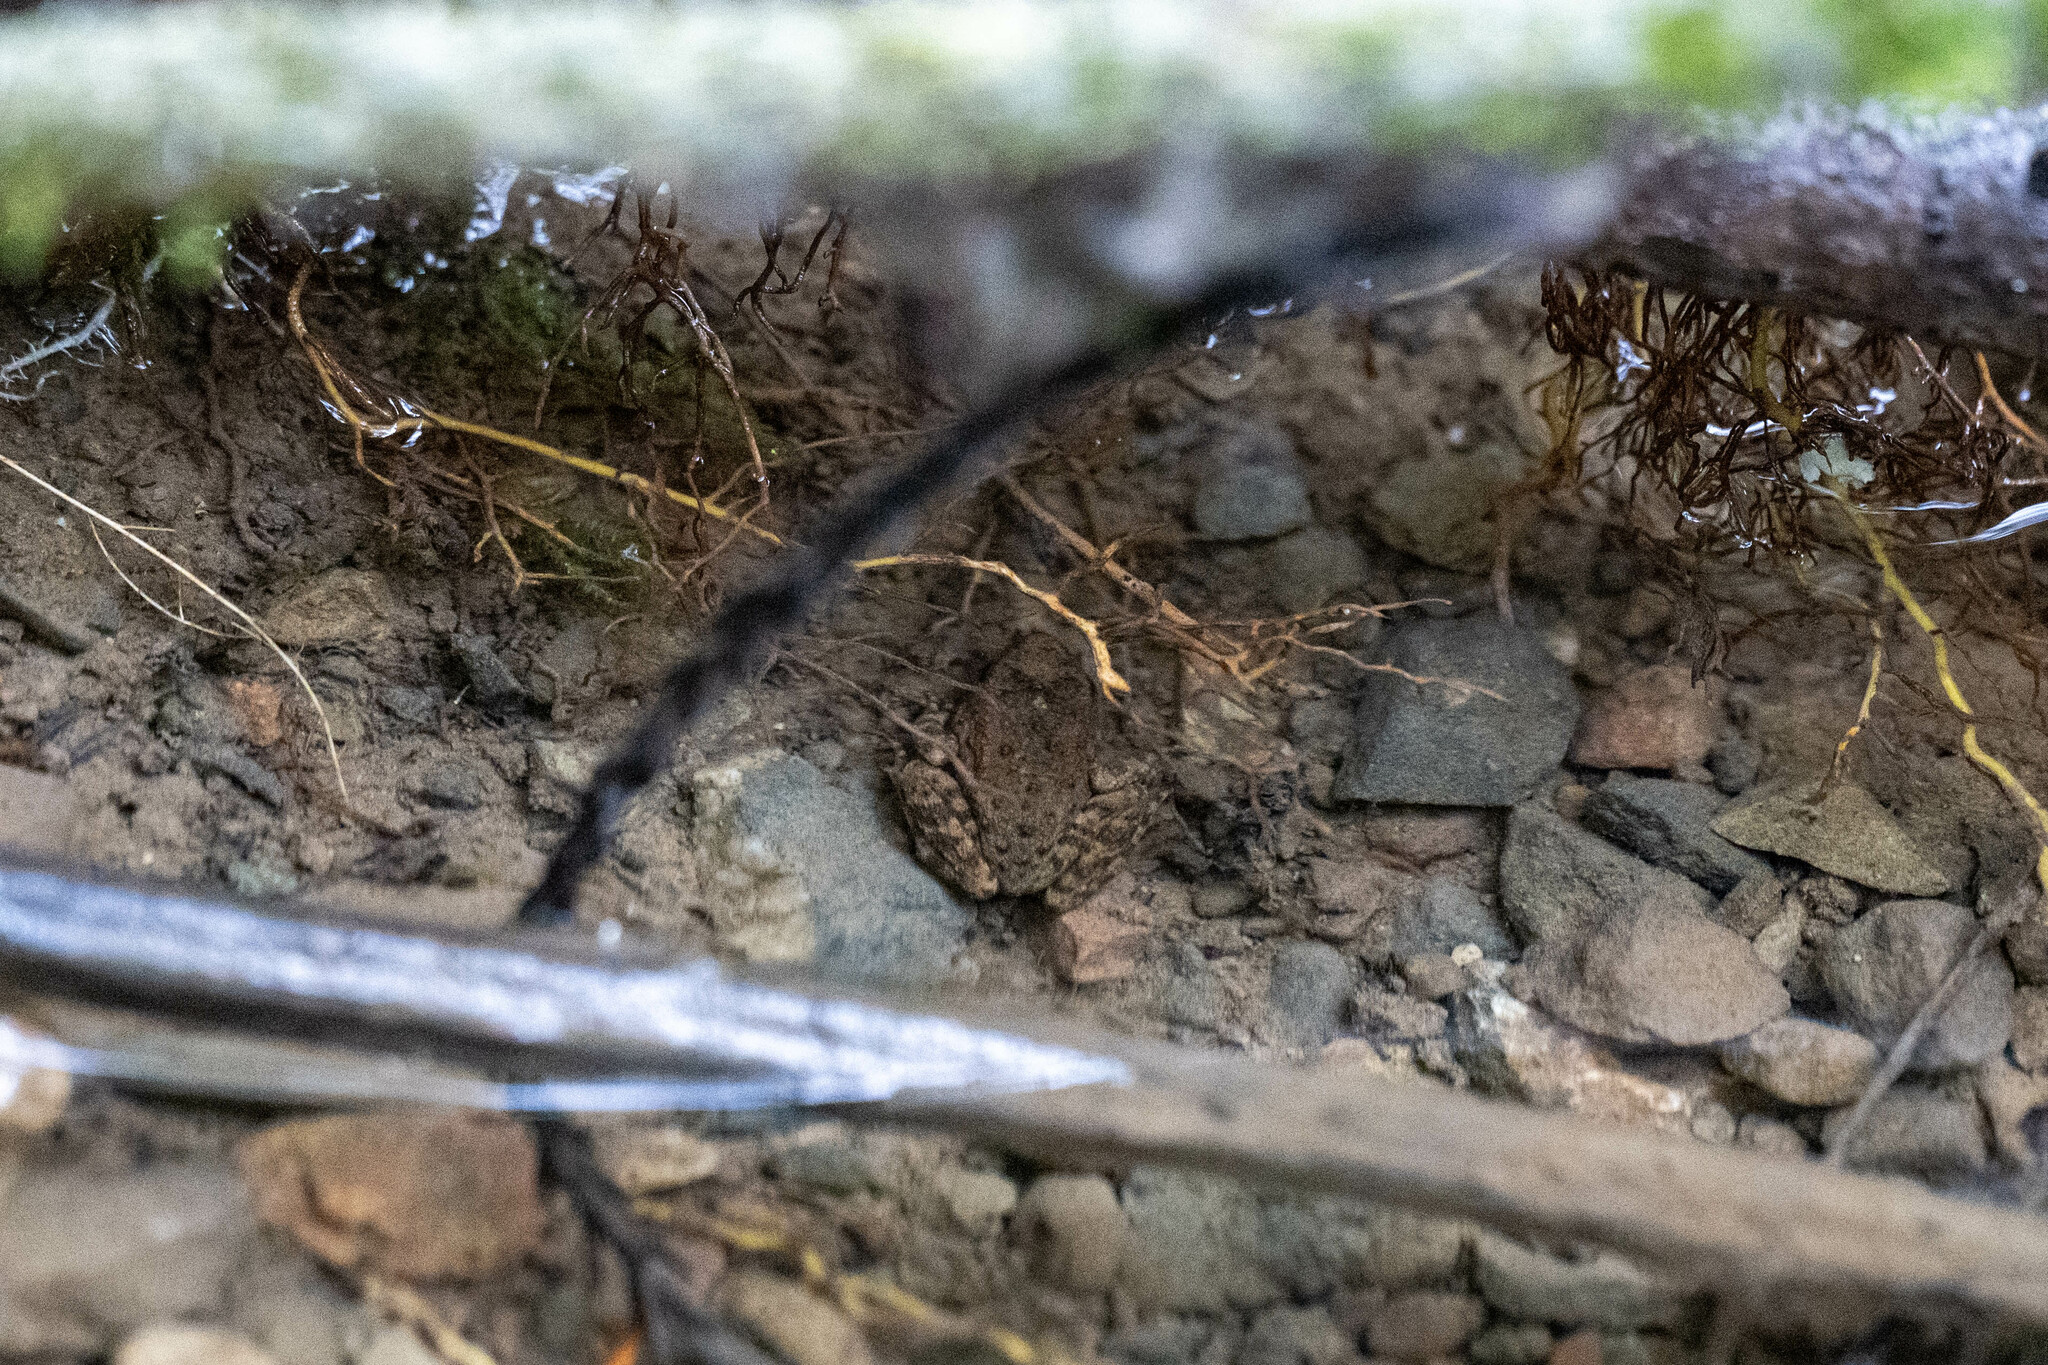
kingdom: Animalia
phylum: Chordata
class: Amphibia
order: Anura
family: Ranidae
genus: Rana
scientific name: Rana boylii
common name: Foothill yellow-legged frog
